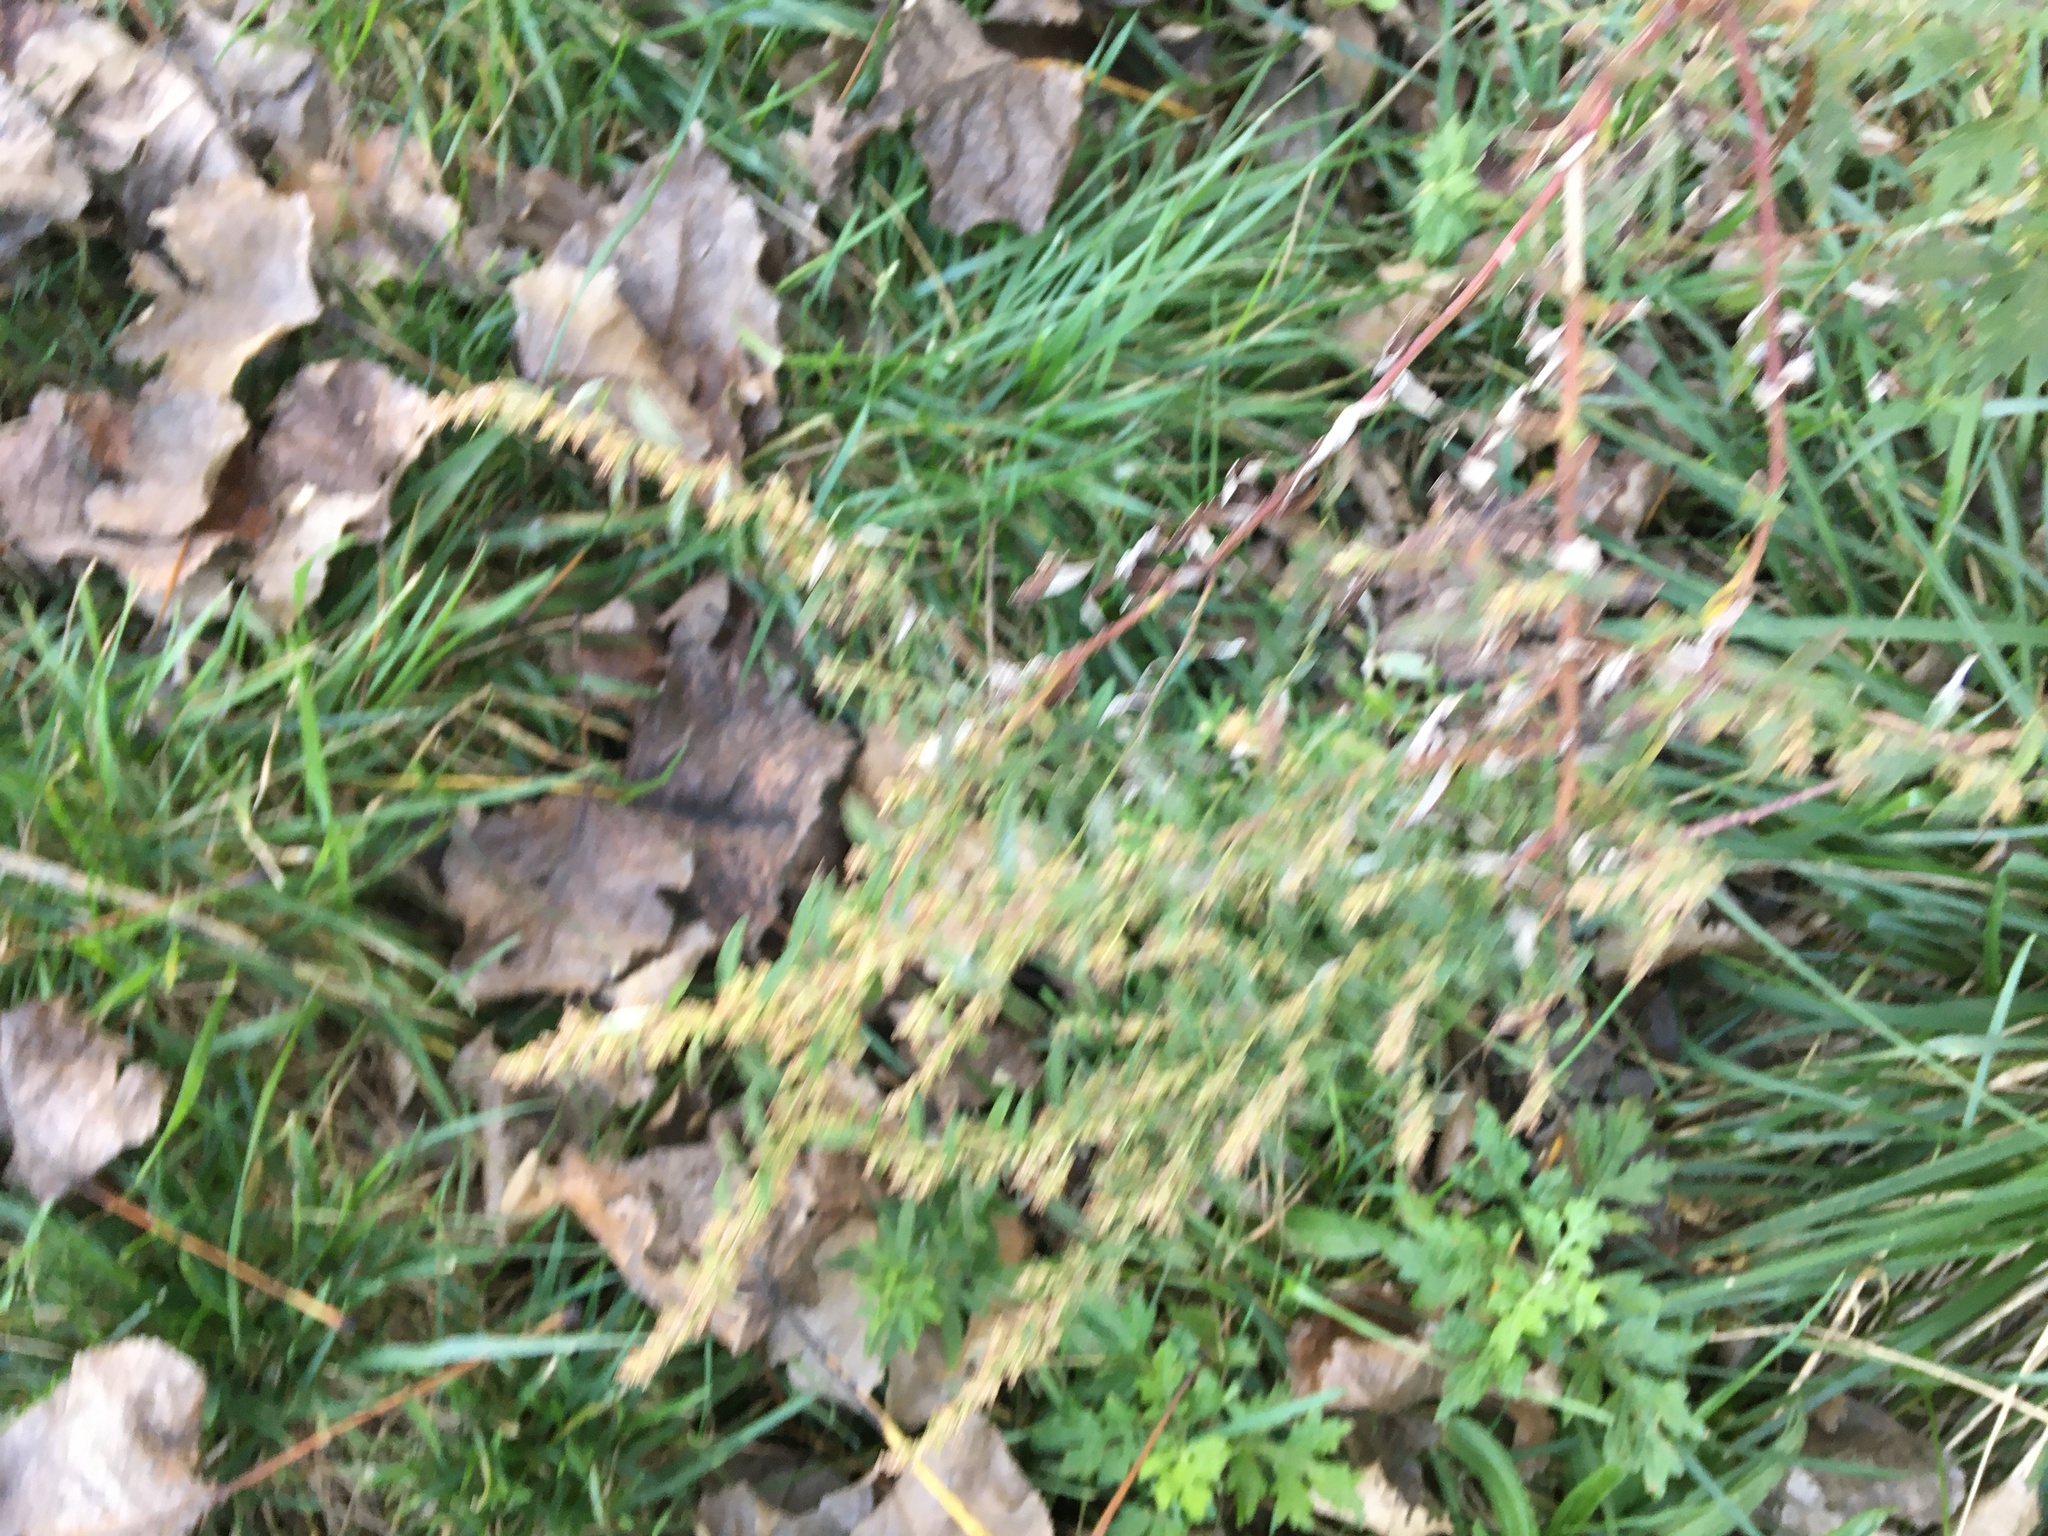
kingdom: Plantae
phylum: Tracheophyta
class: Magnoliopsida
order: Asterales
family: Asteraceae
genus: Artemisia
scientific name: Artemisia vulgaris
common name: Mugwort
